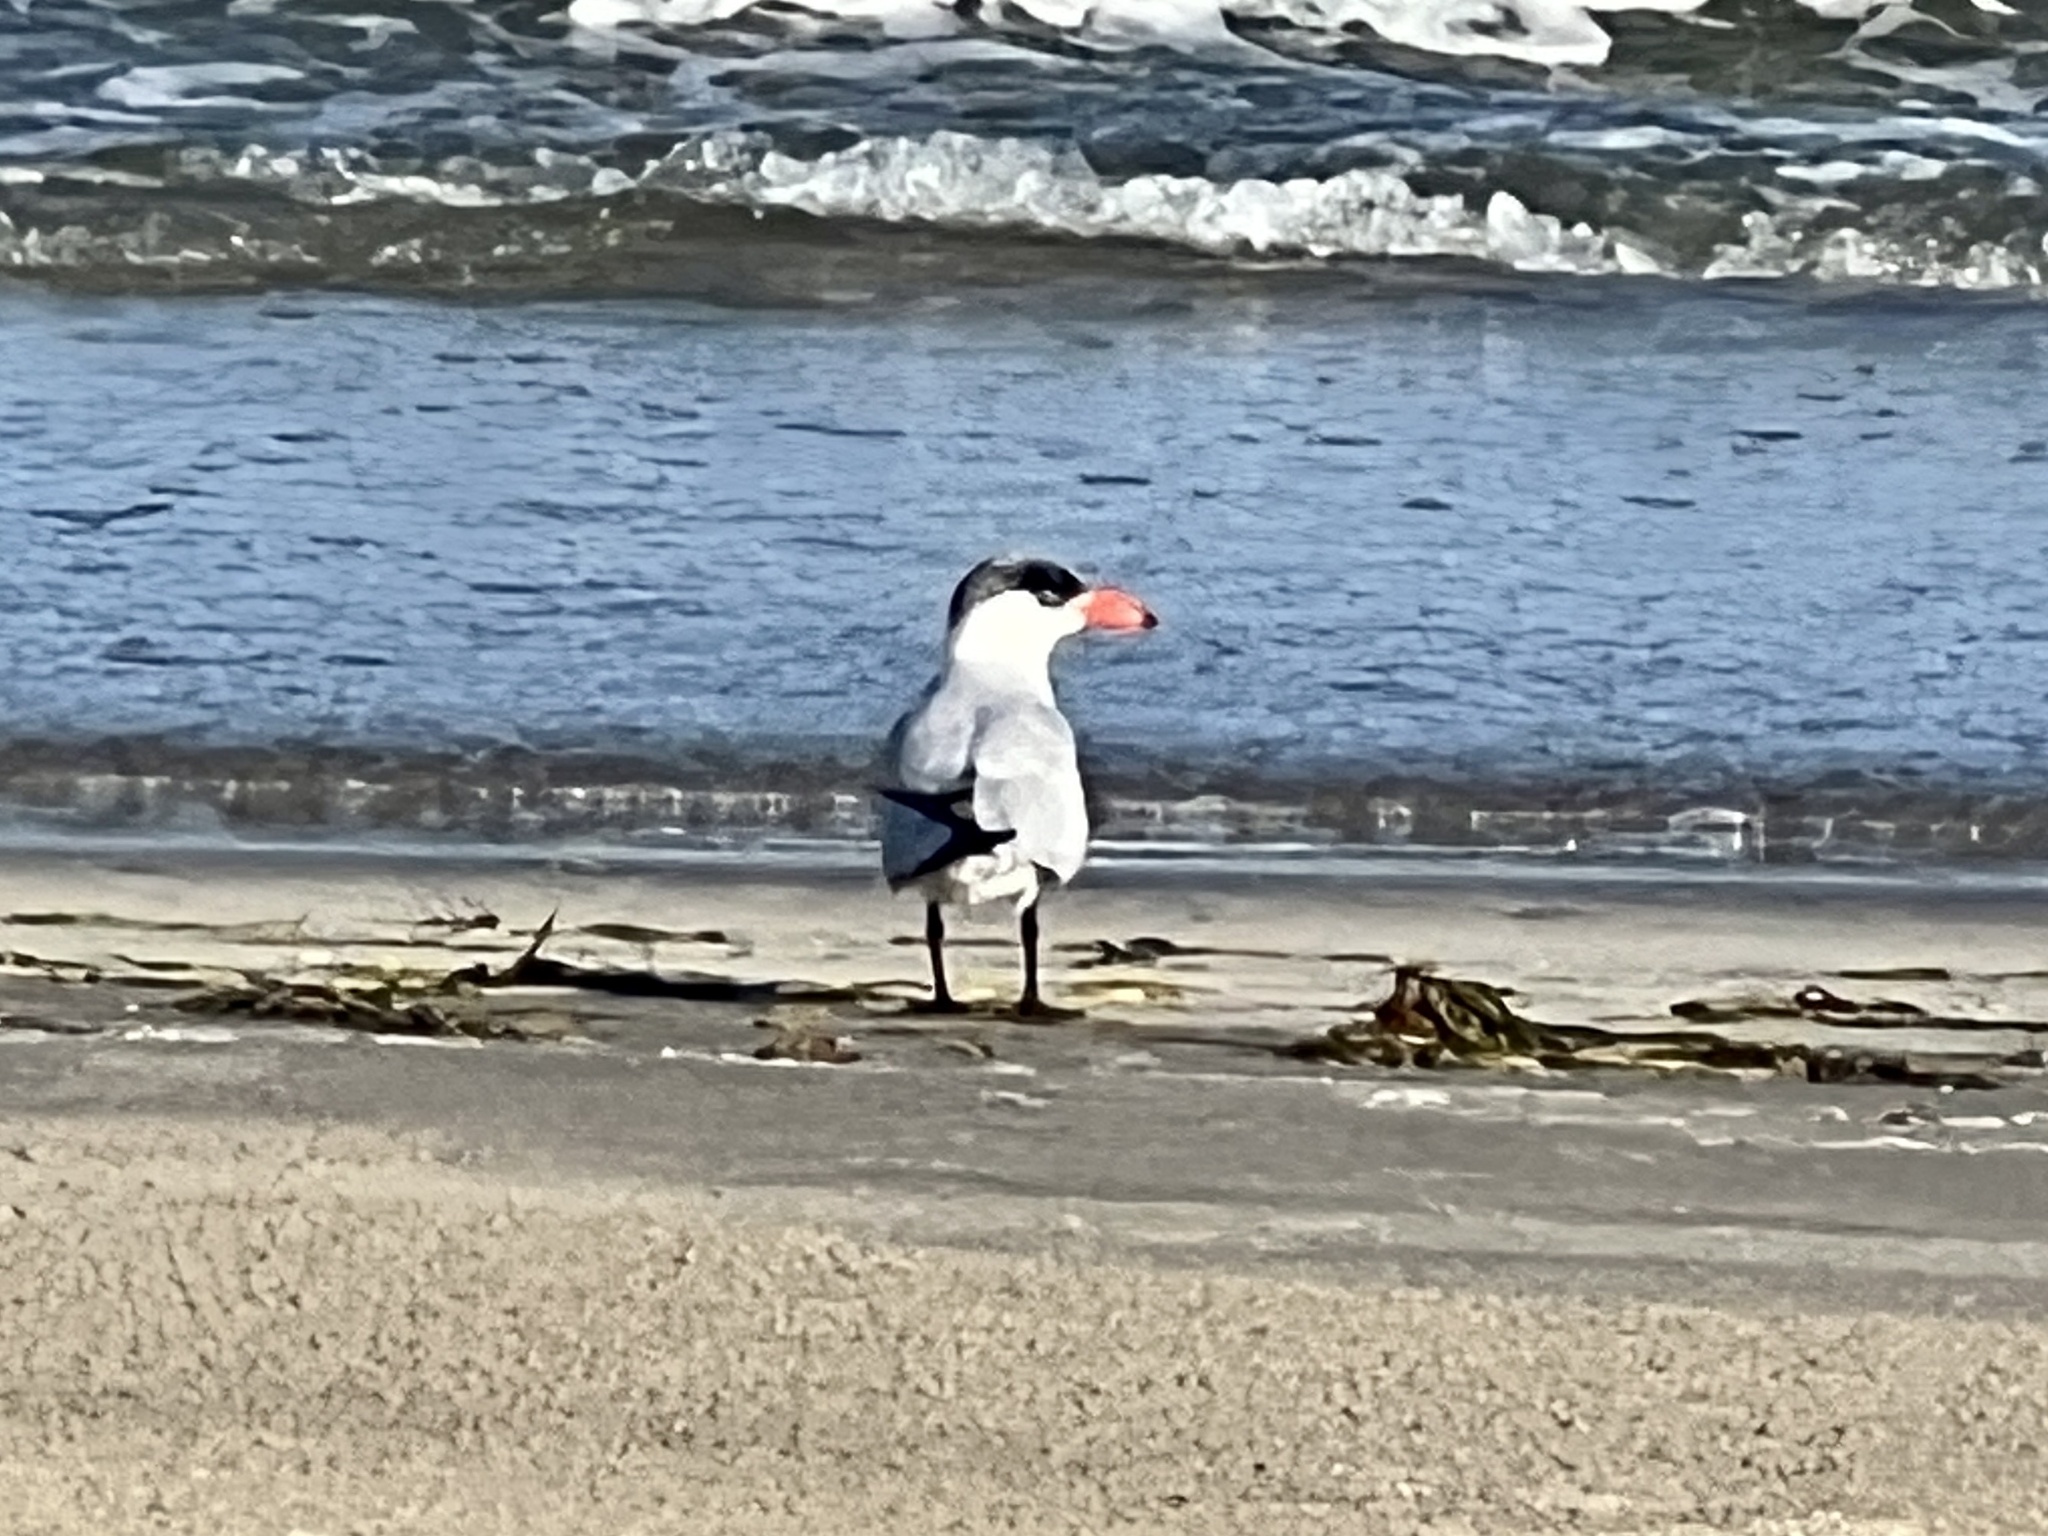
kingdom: Animalia
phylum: Chordata
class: Aves
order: Charadriiformes
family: Laridae
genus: Hydroprogne
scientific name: Hydroprogne caspia
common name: Caspian tern
